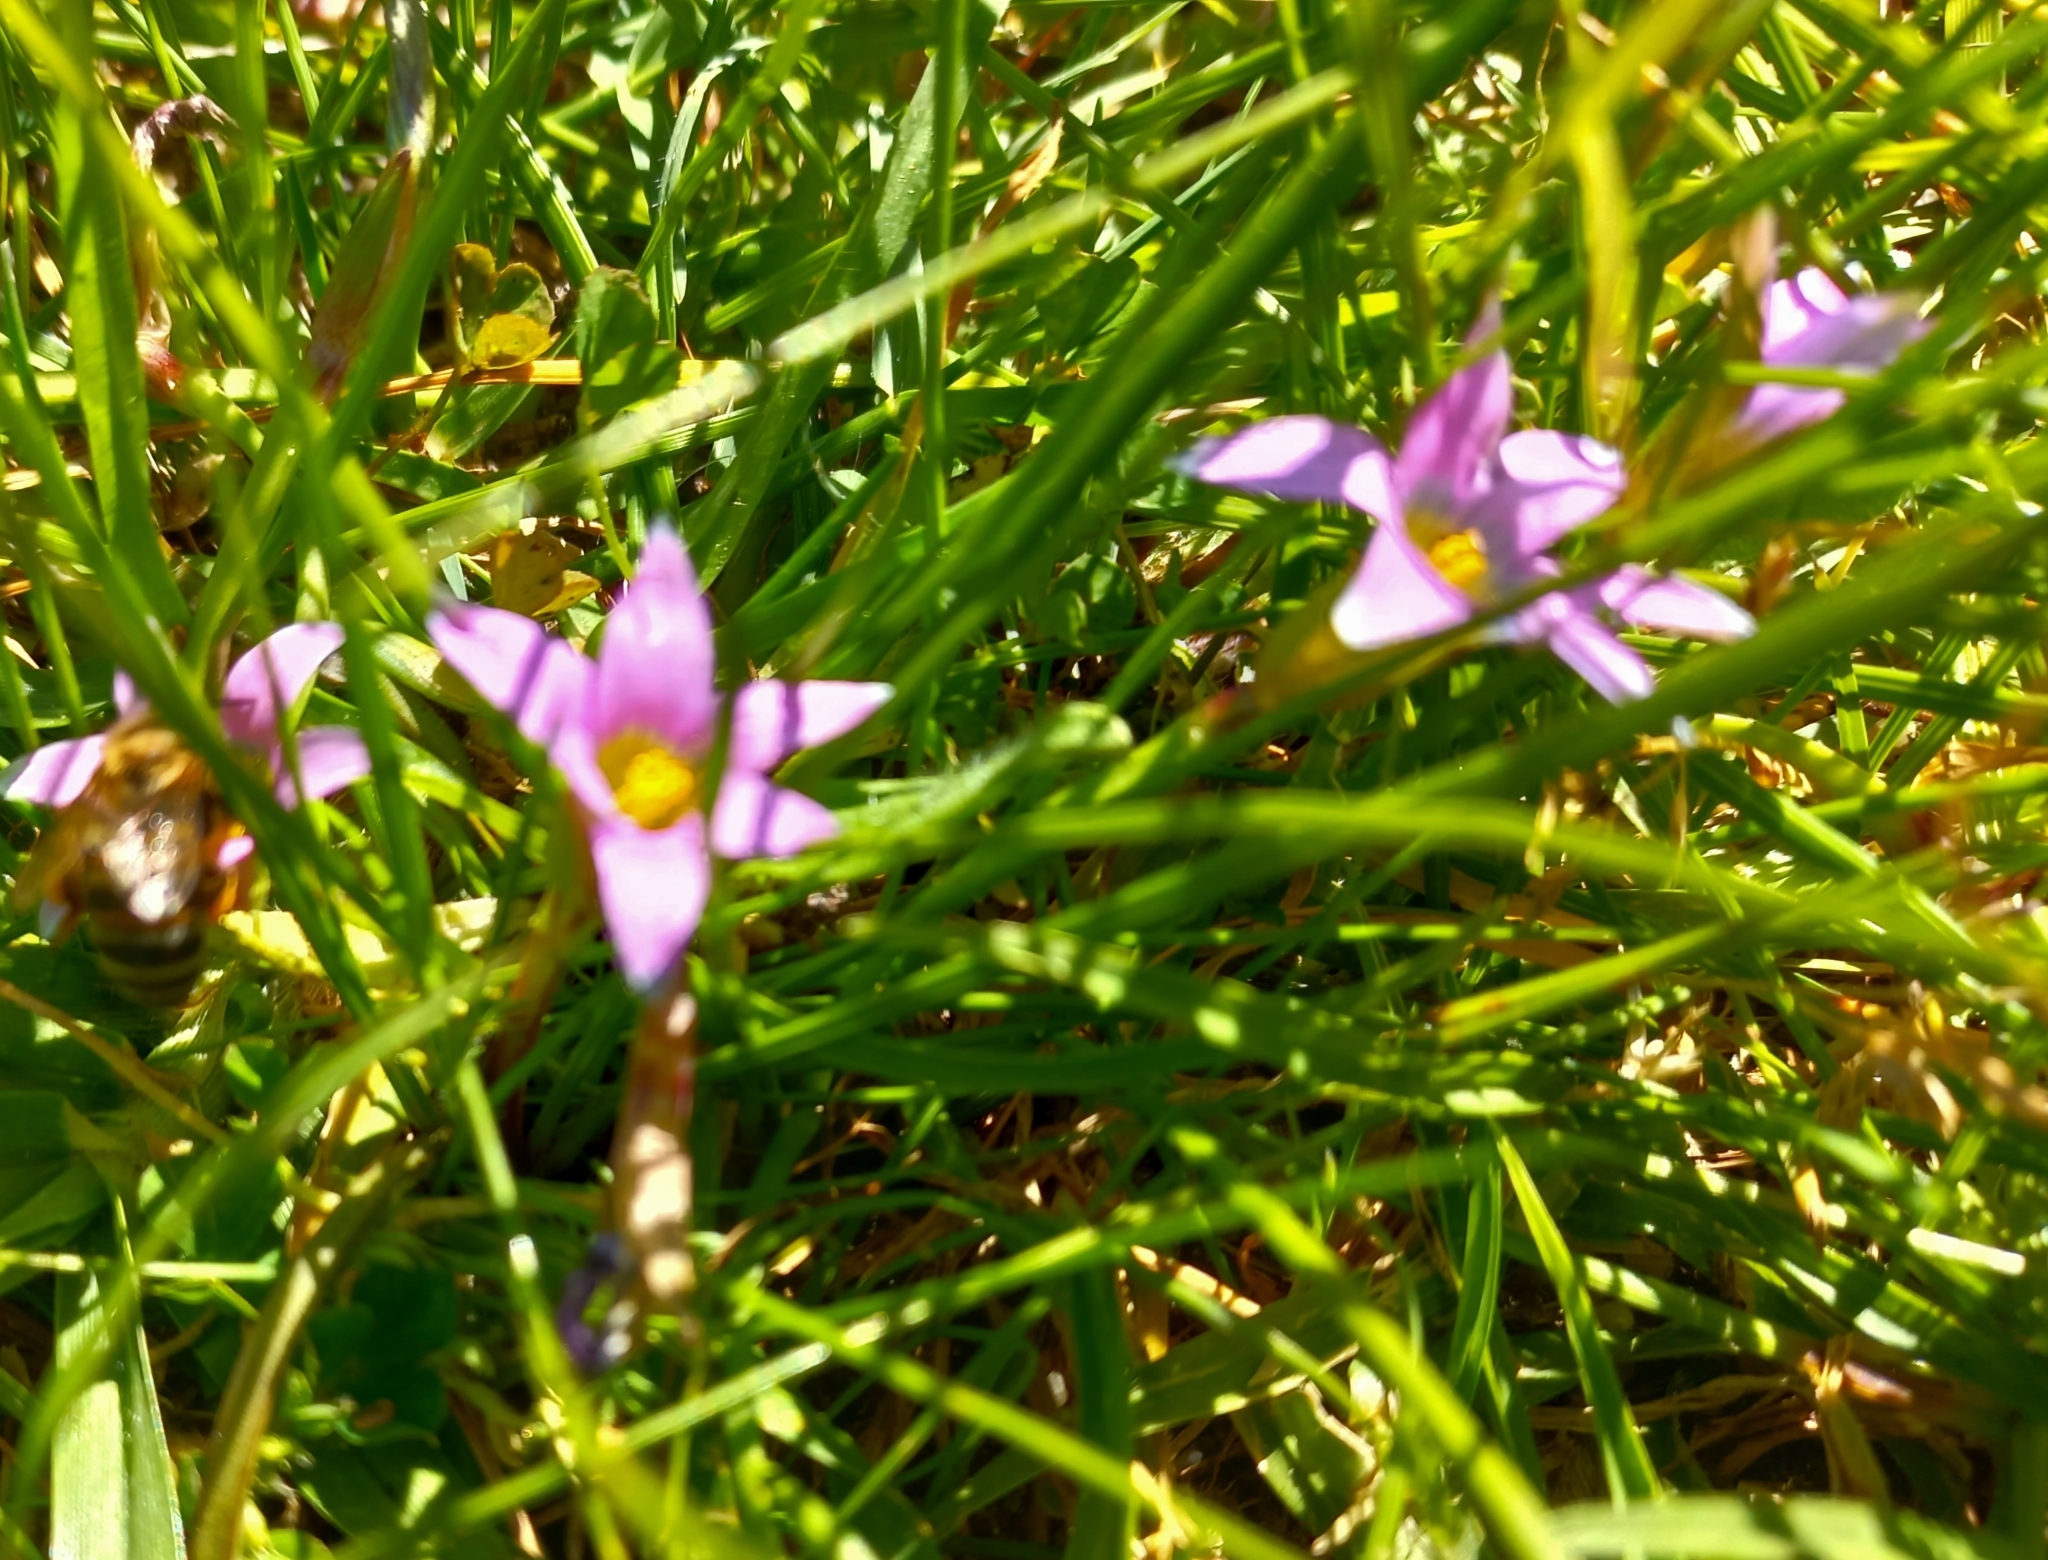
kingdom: Plantae
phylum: Tracheophyta
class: Liliopsida
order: Asparagales
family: Iridaceae
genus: Romulea
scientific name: Romulea rosea
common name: Oniongrass
